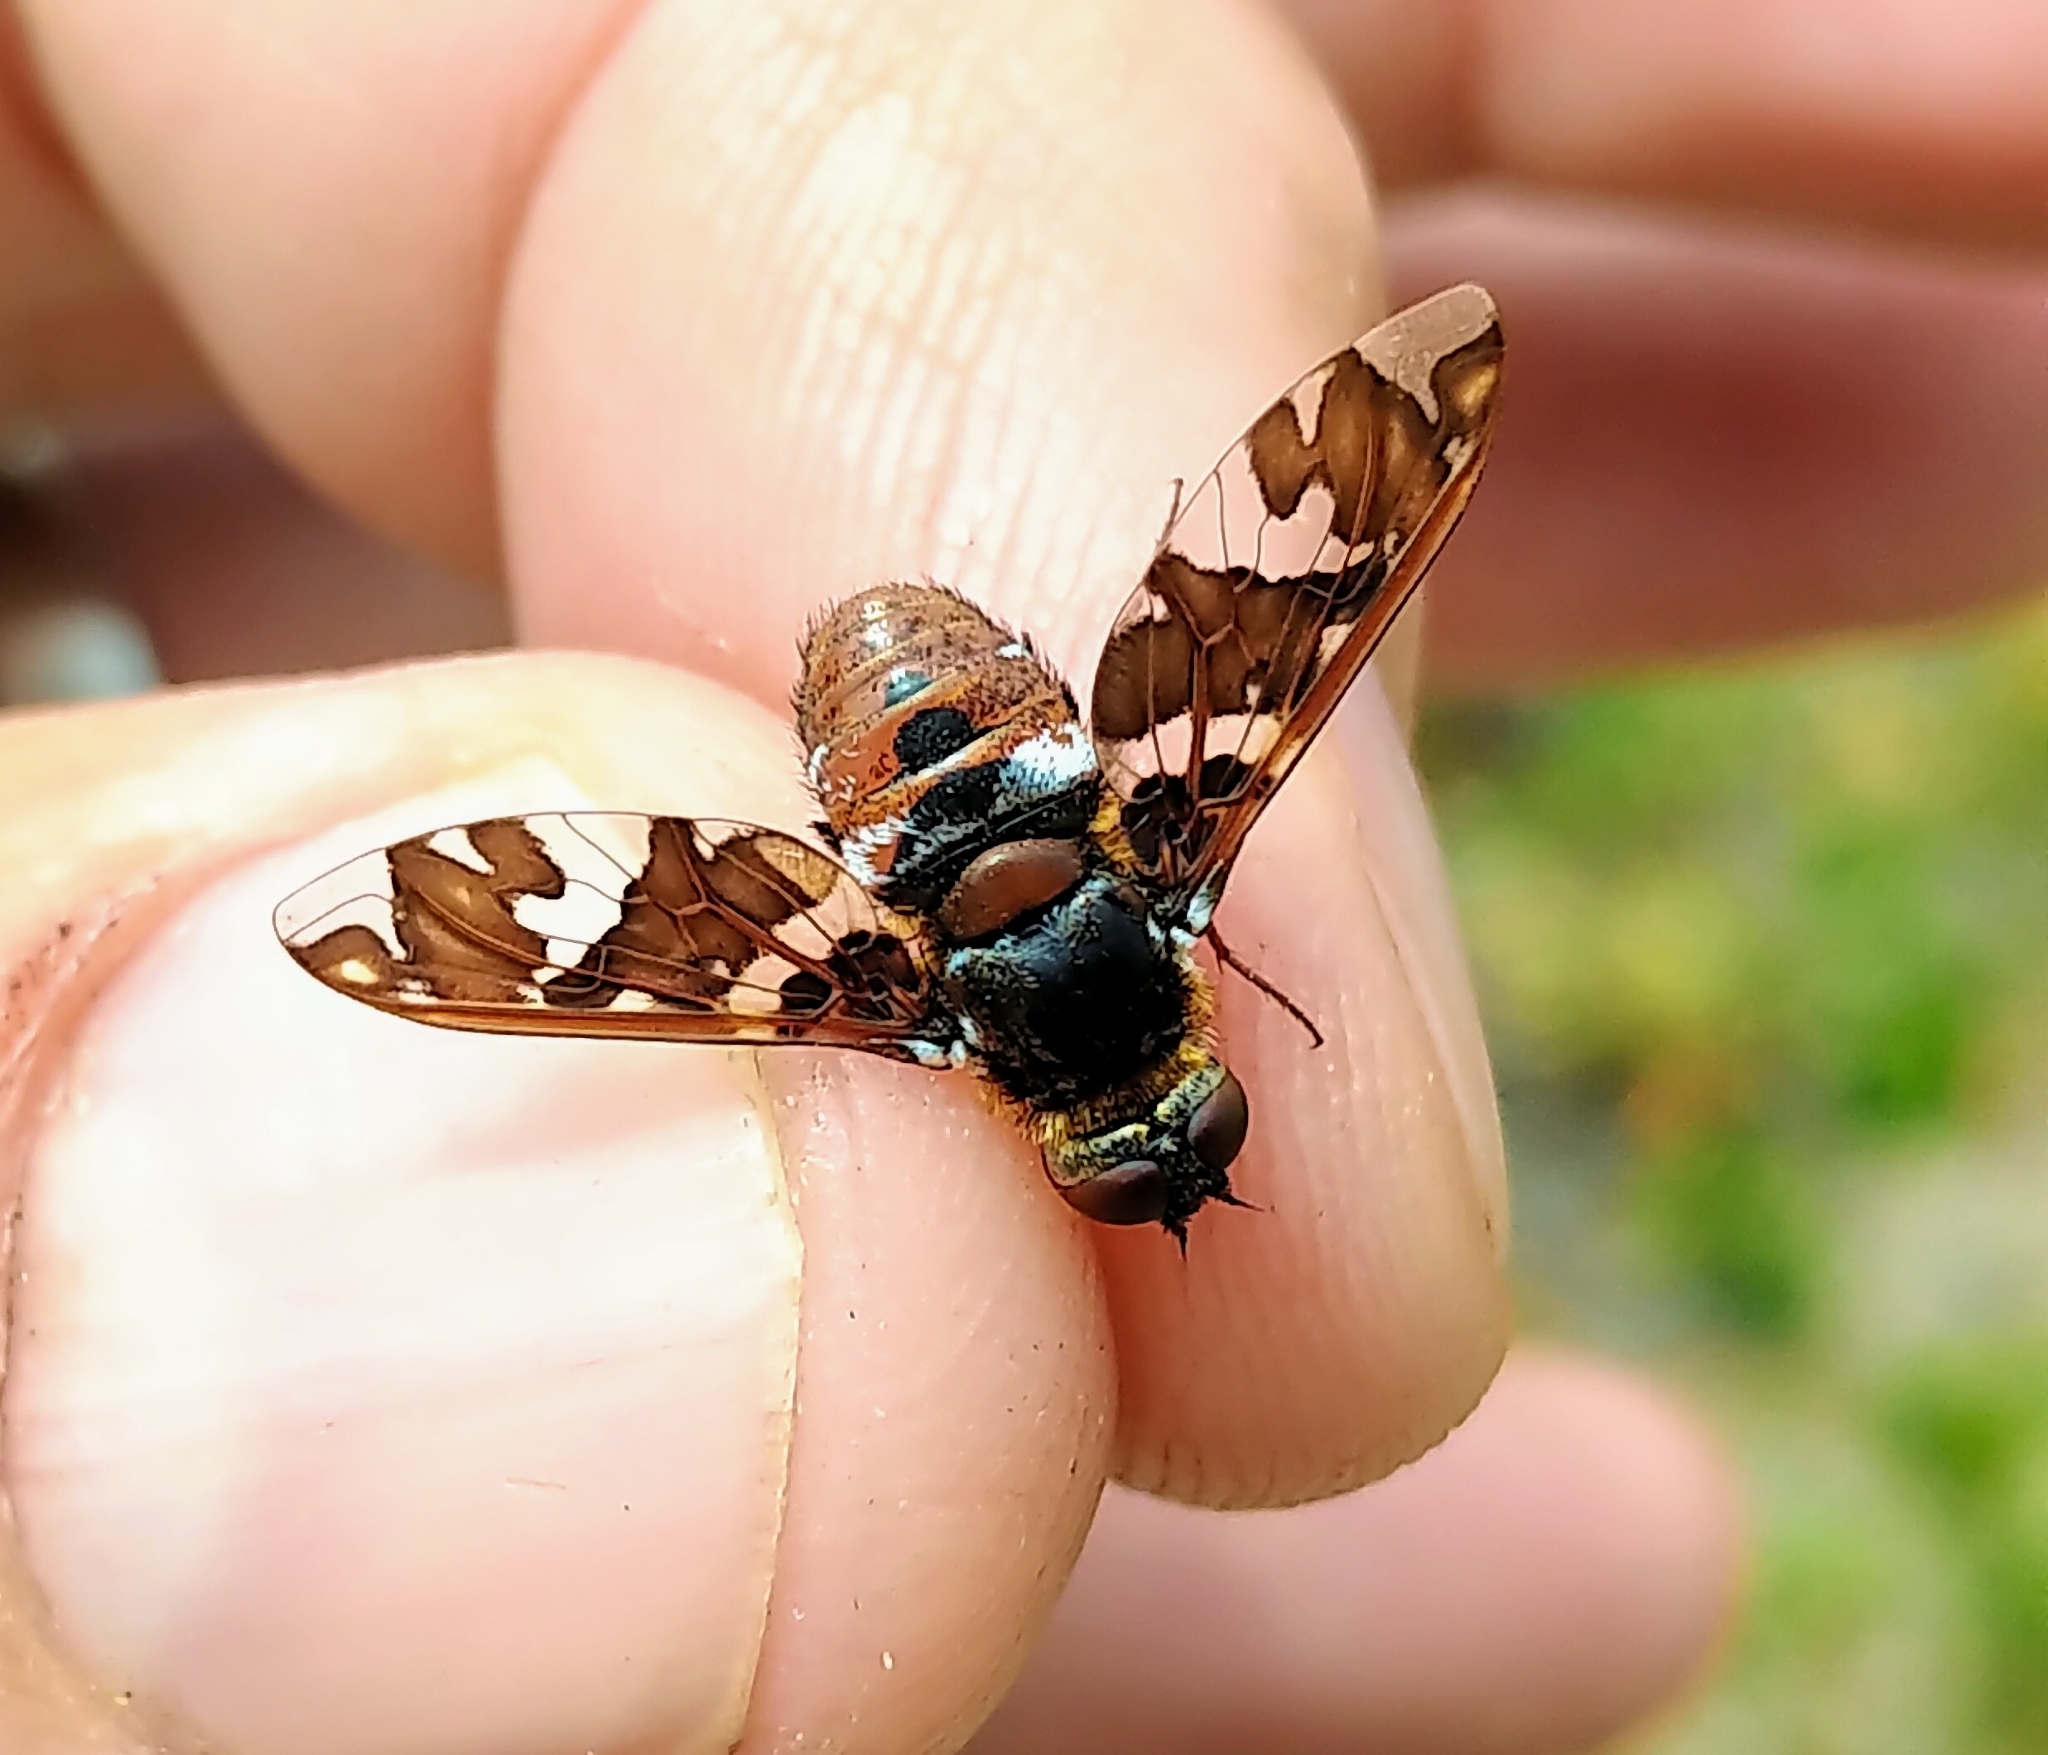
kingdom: Animalia
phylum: Arthropoda
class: Insecta
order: Diptera
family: Bombyliidae
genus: Exoprosopa
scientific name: Exoprosopa caliptera
